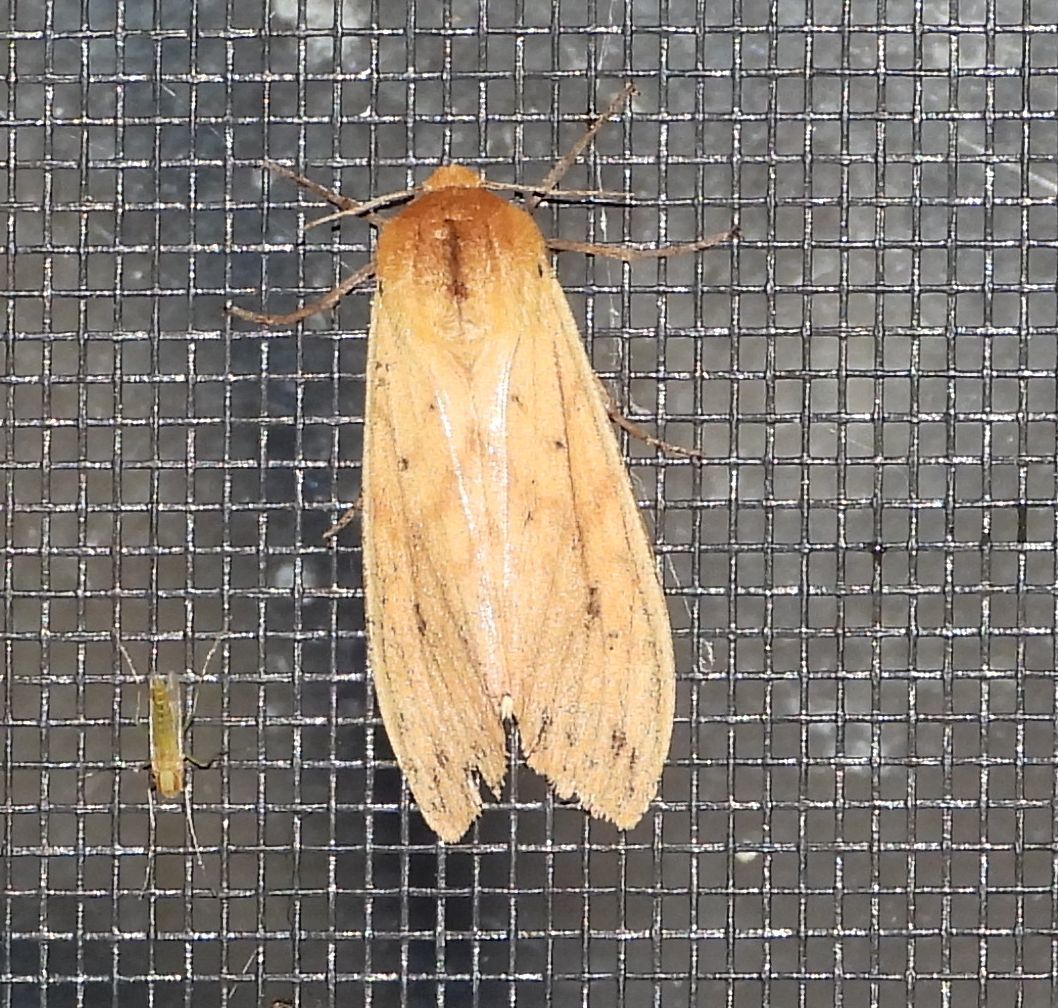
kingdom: Animalia
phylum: Arthropoda
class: Insecta
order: Lepidoptera
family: Erebidae
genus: Pyrrharctia
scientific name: Pyrrharctia isabella
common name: Isabella tiger moth
